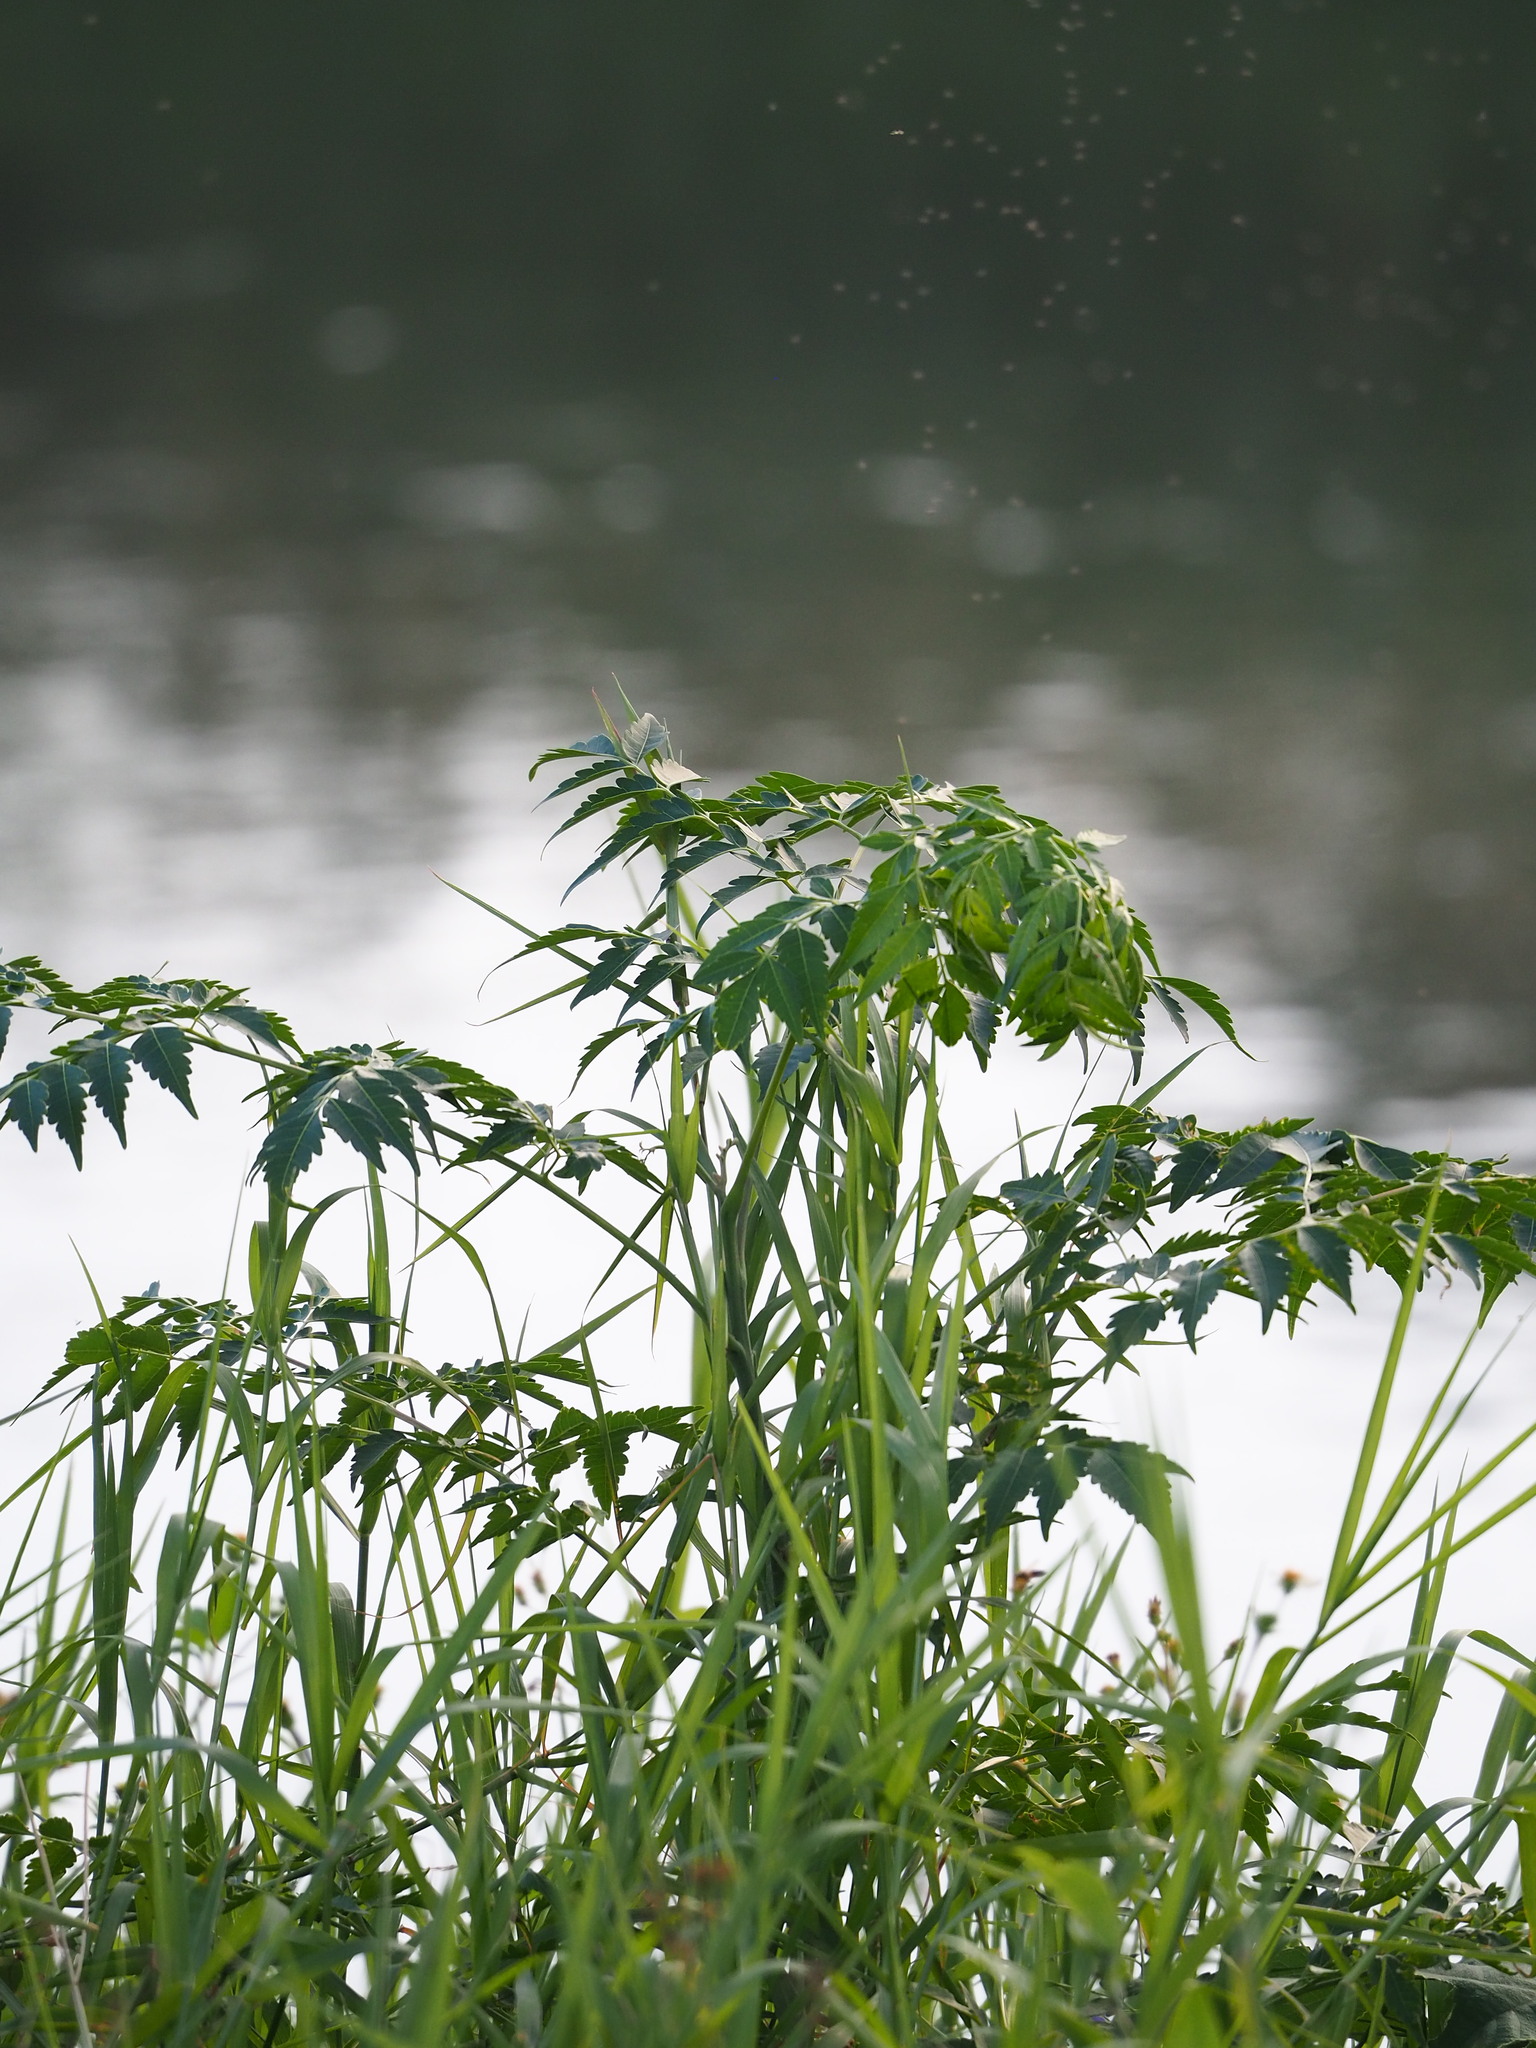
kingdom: Plantae
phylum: Tracheophyta
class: Magnoliopsida
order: Sapindales
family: Meliaceae
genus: Melia
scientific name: Melia azedarach
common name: Chinaberrytree
